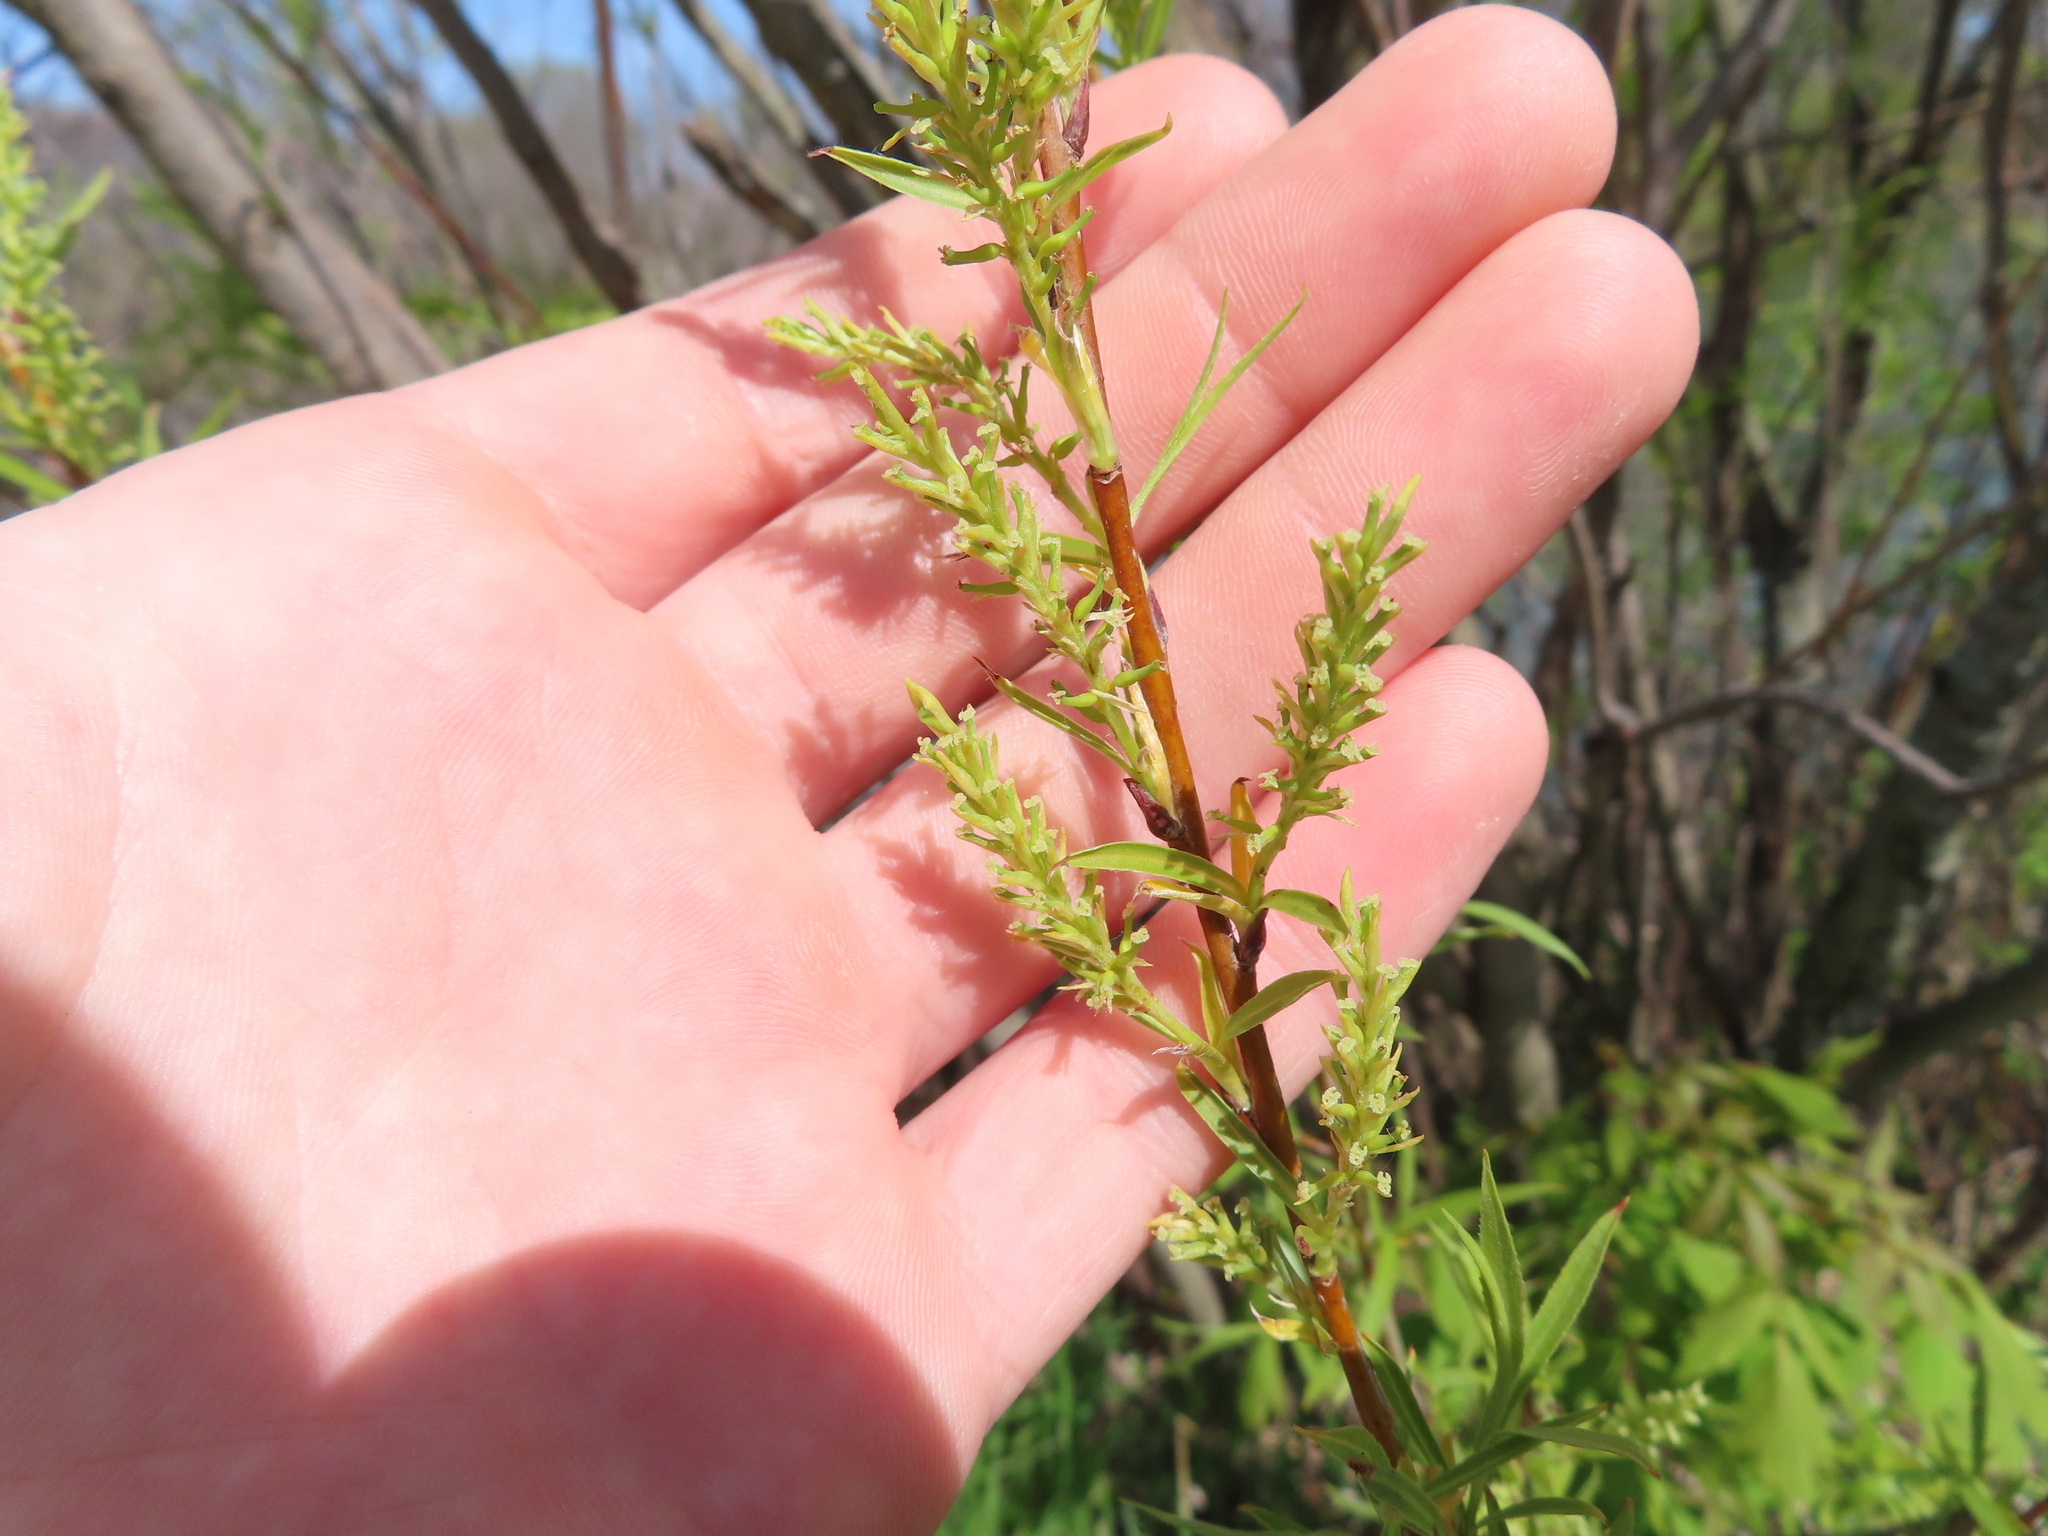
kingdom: Plantae
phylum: Tracheophyta
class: Magnoliopsida
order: Malpighiales
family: Salicaceae
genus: Salix
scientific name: Salix interior
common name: Sandbar willow
